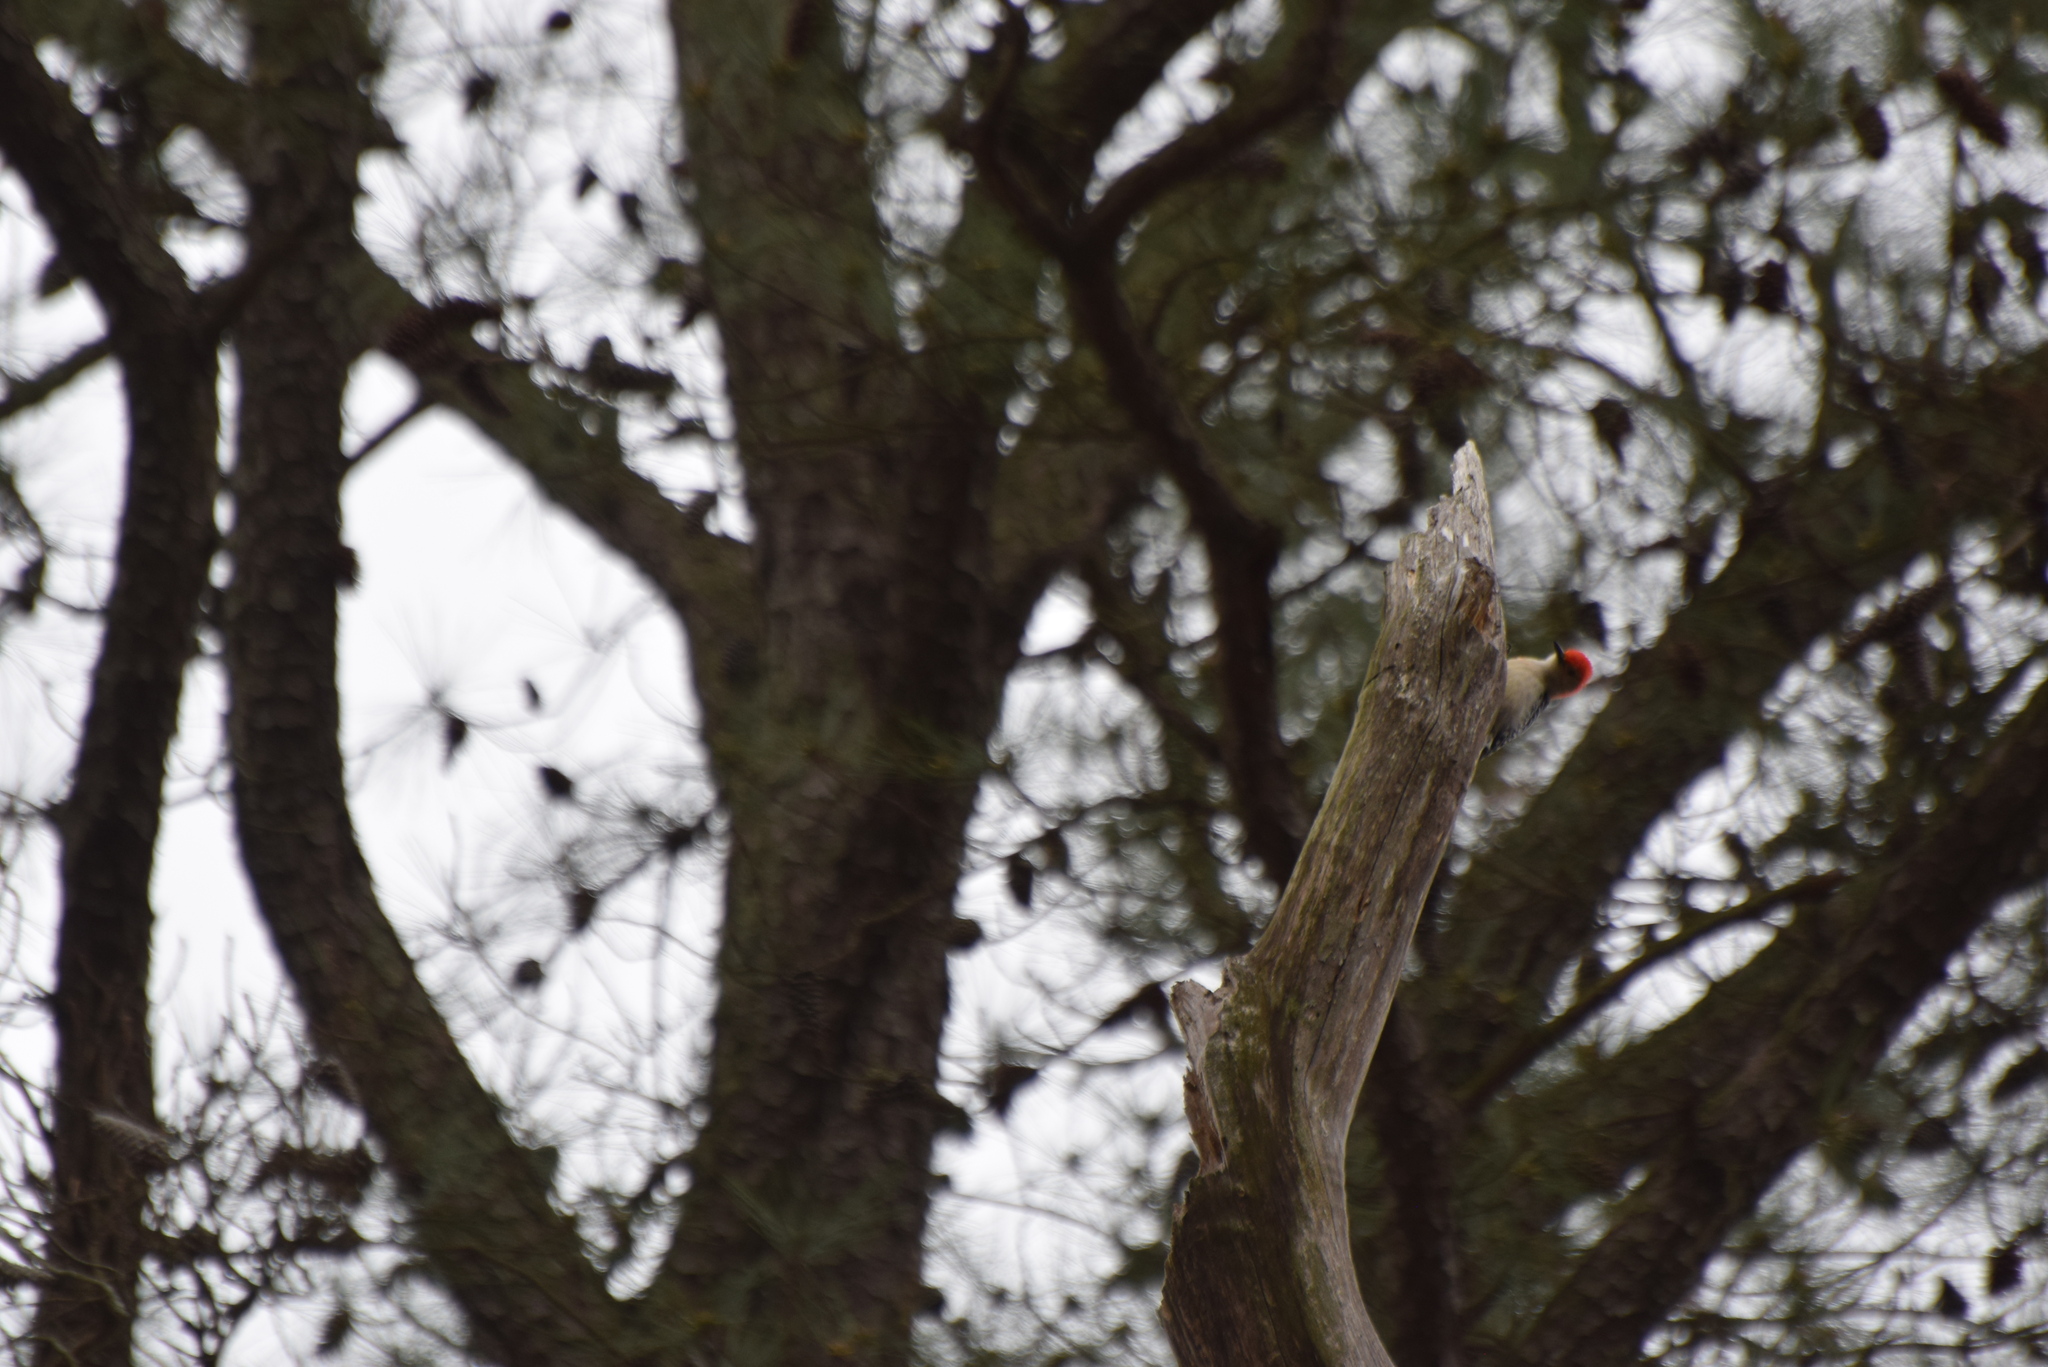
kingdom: Animalia
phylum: Chordata
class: Aves
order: Piciformes
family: Picidae
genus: Melanerpes
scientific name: Melanerpes carolinus
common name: Red-bellied woodpecker
